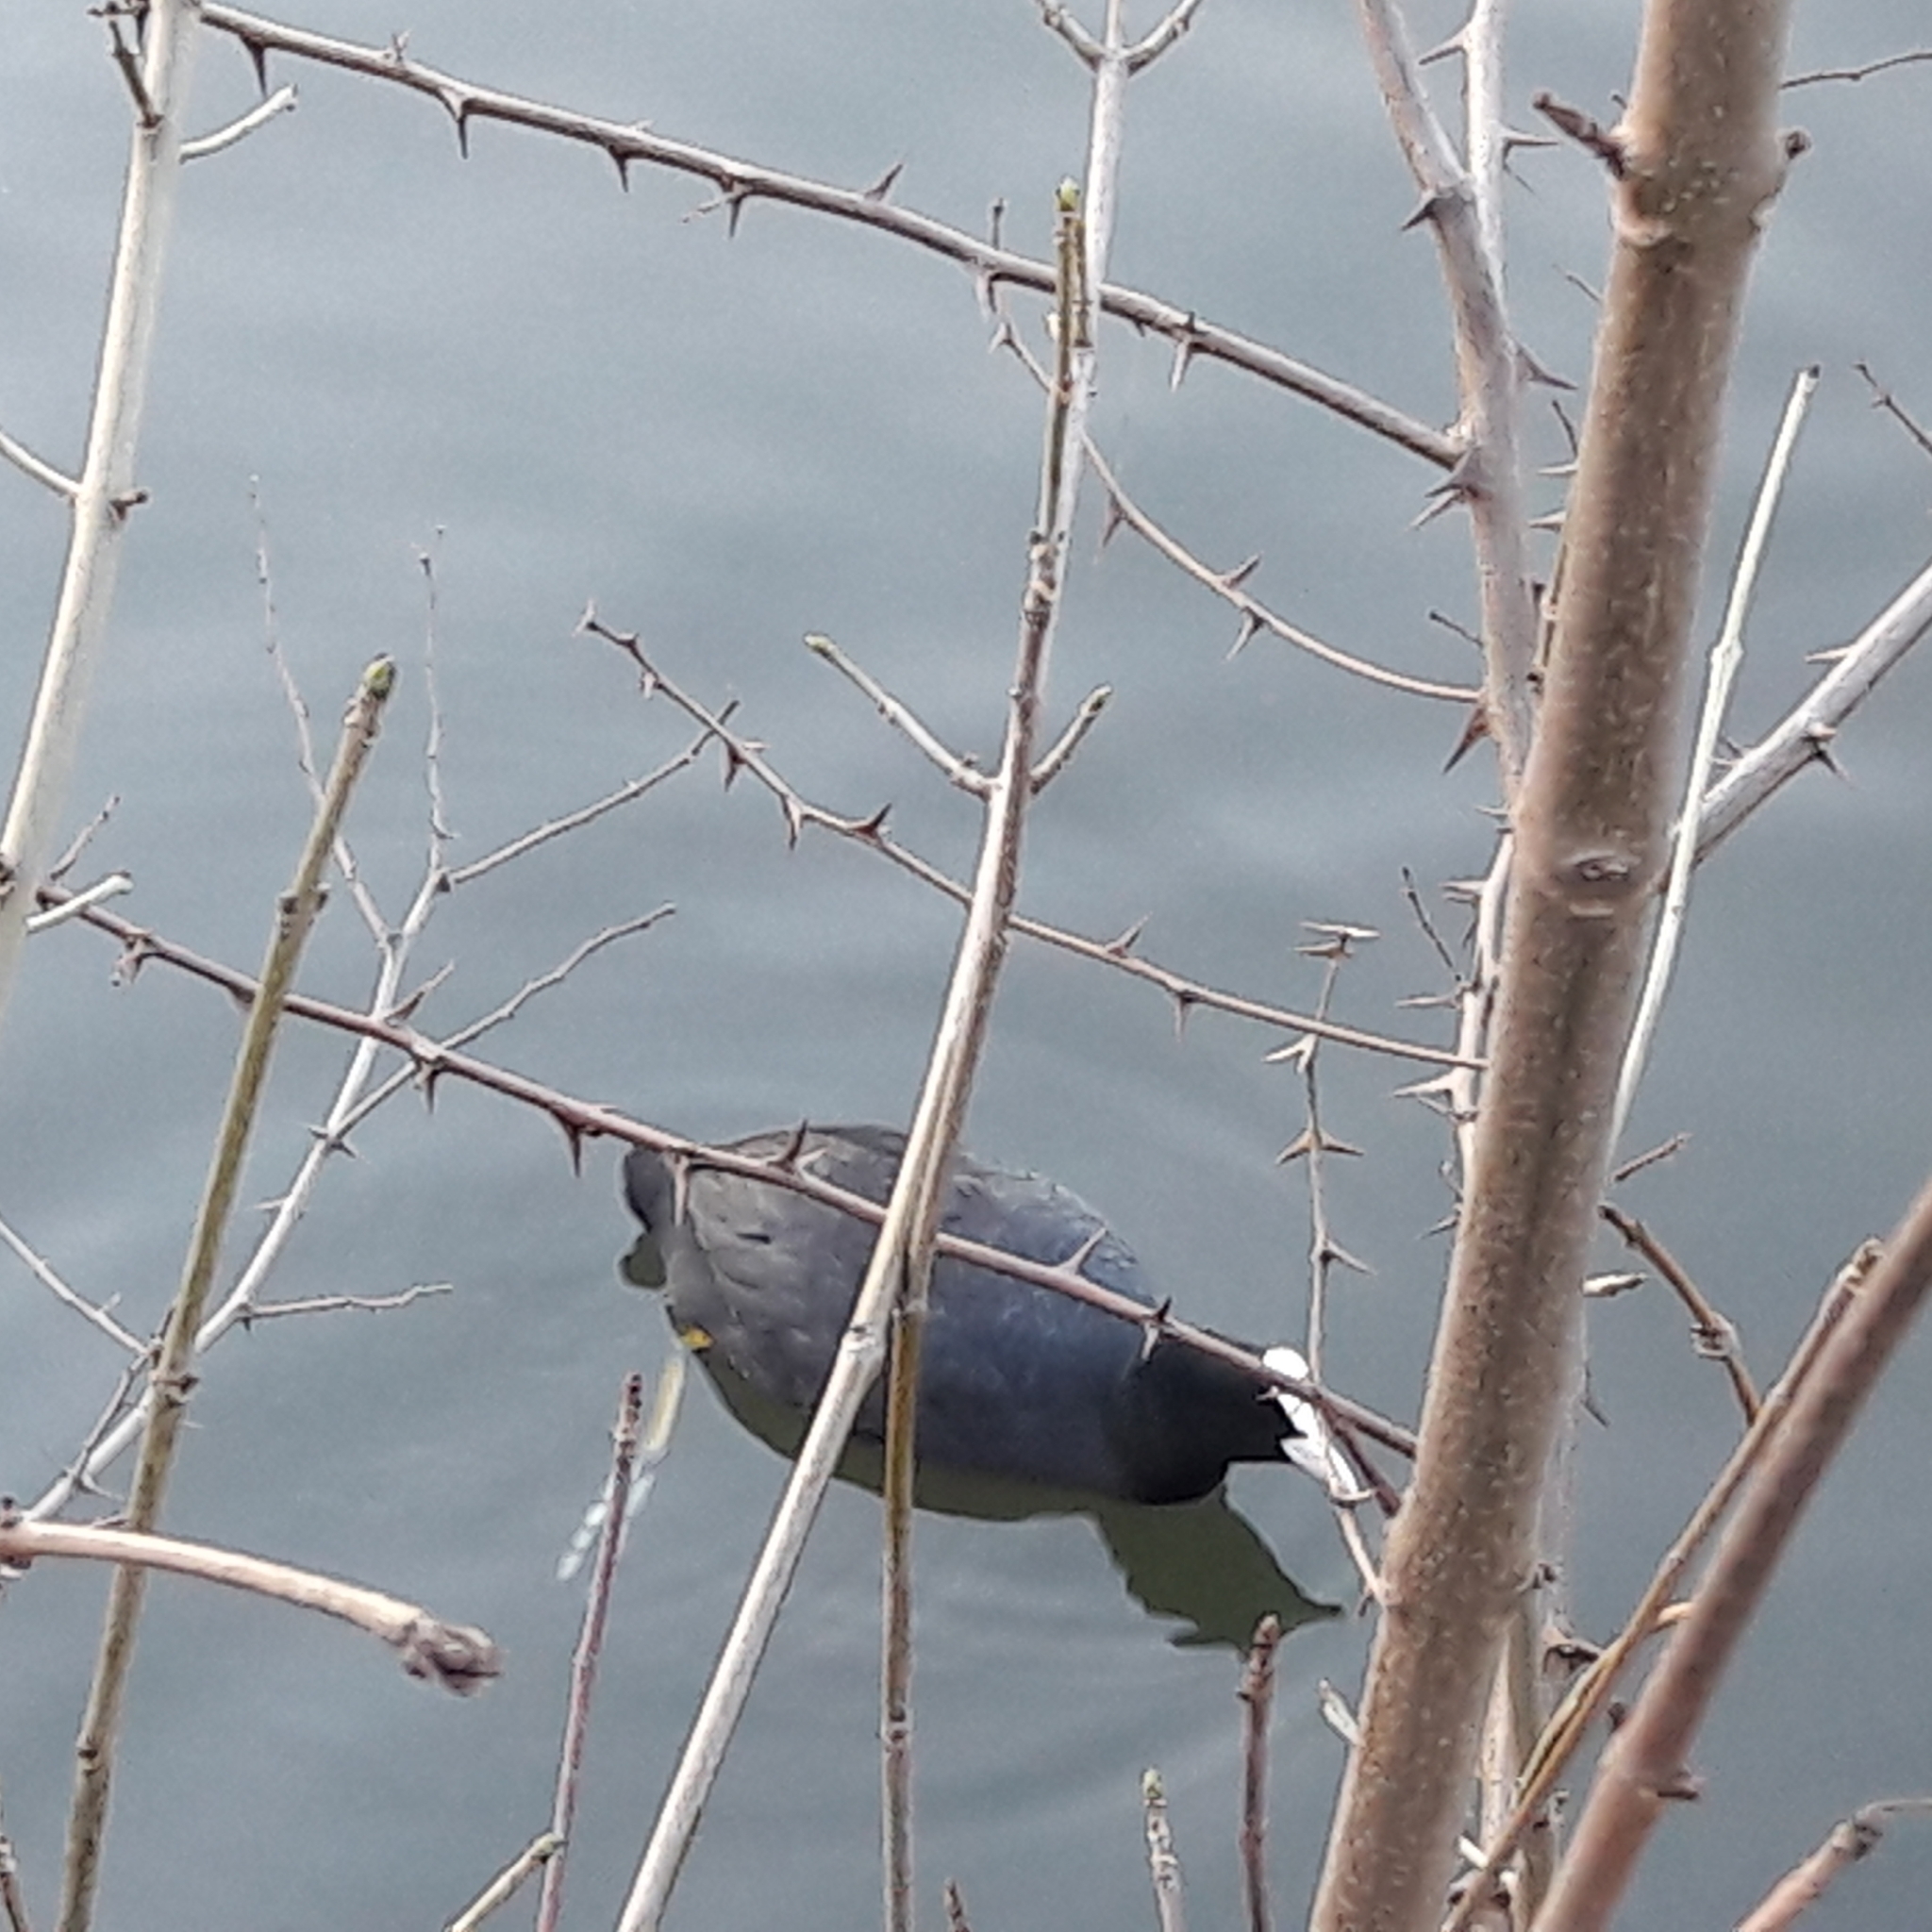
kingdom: Animalia
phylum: Chordata
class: Aves
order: Gruiformes
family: Rallidae
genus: Fulica
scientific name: Fulica atra
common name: Eurasian coot
